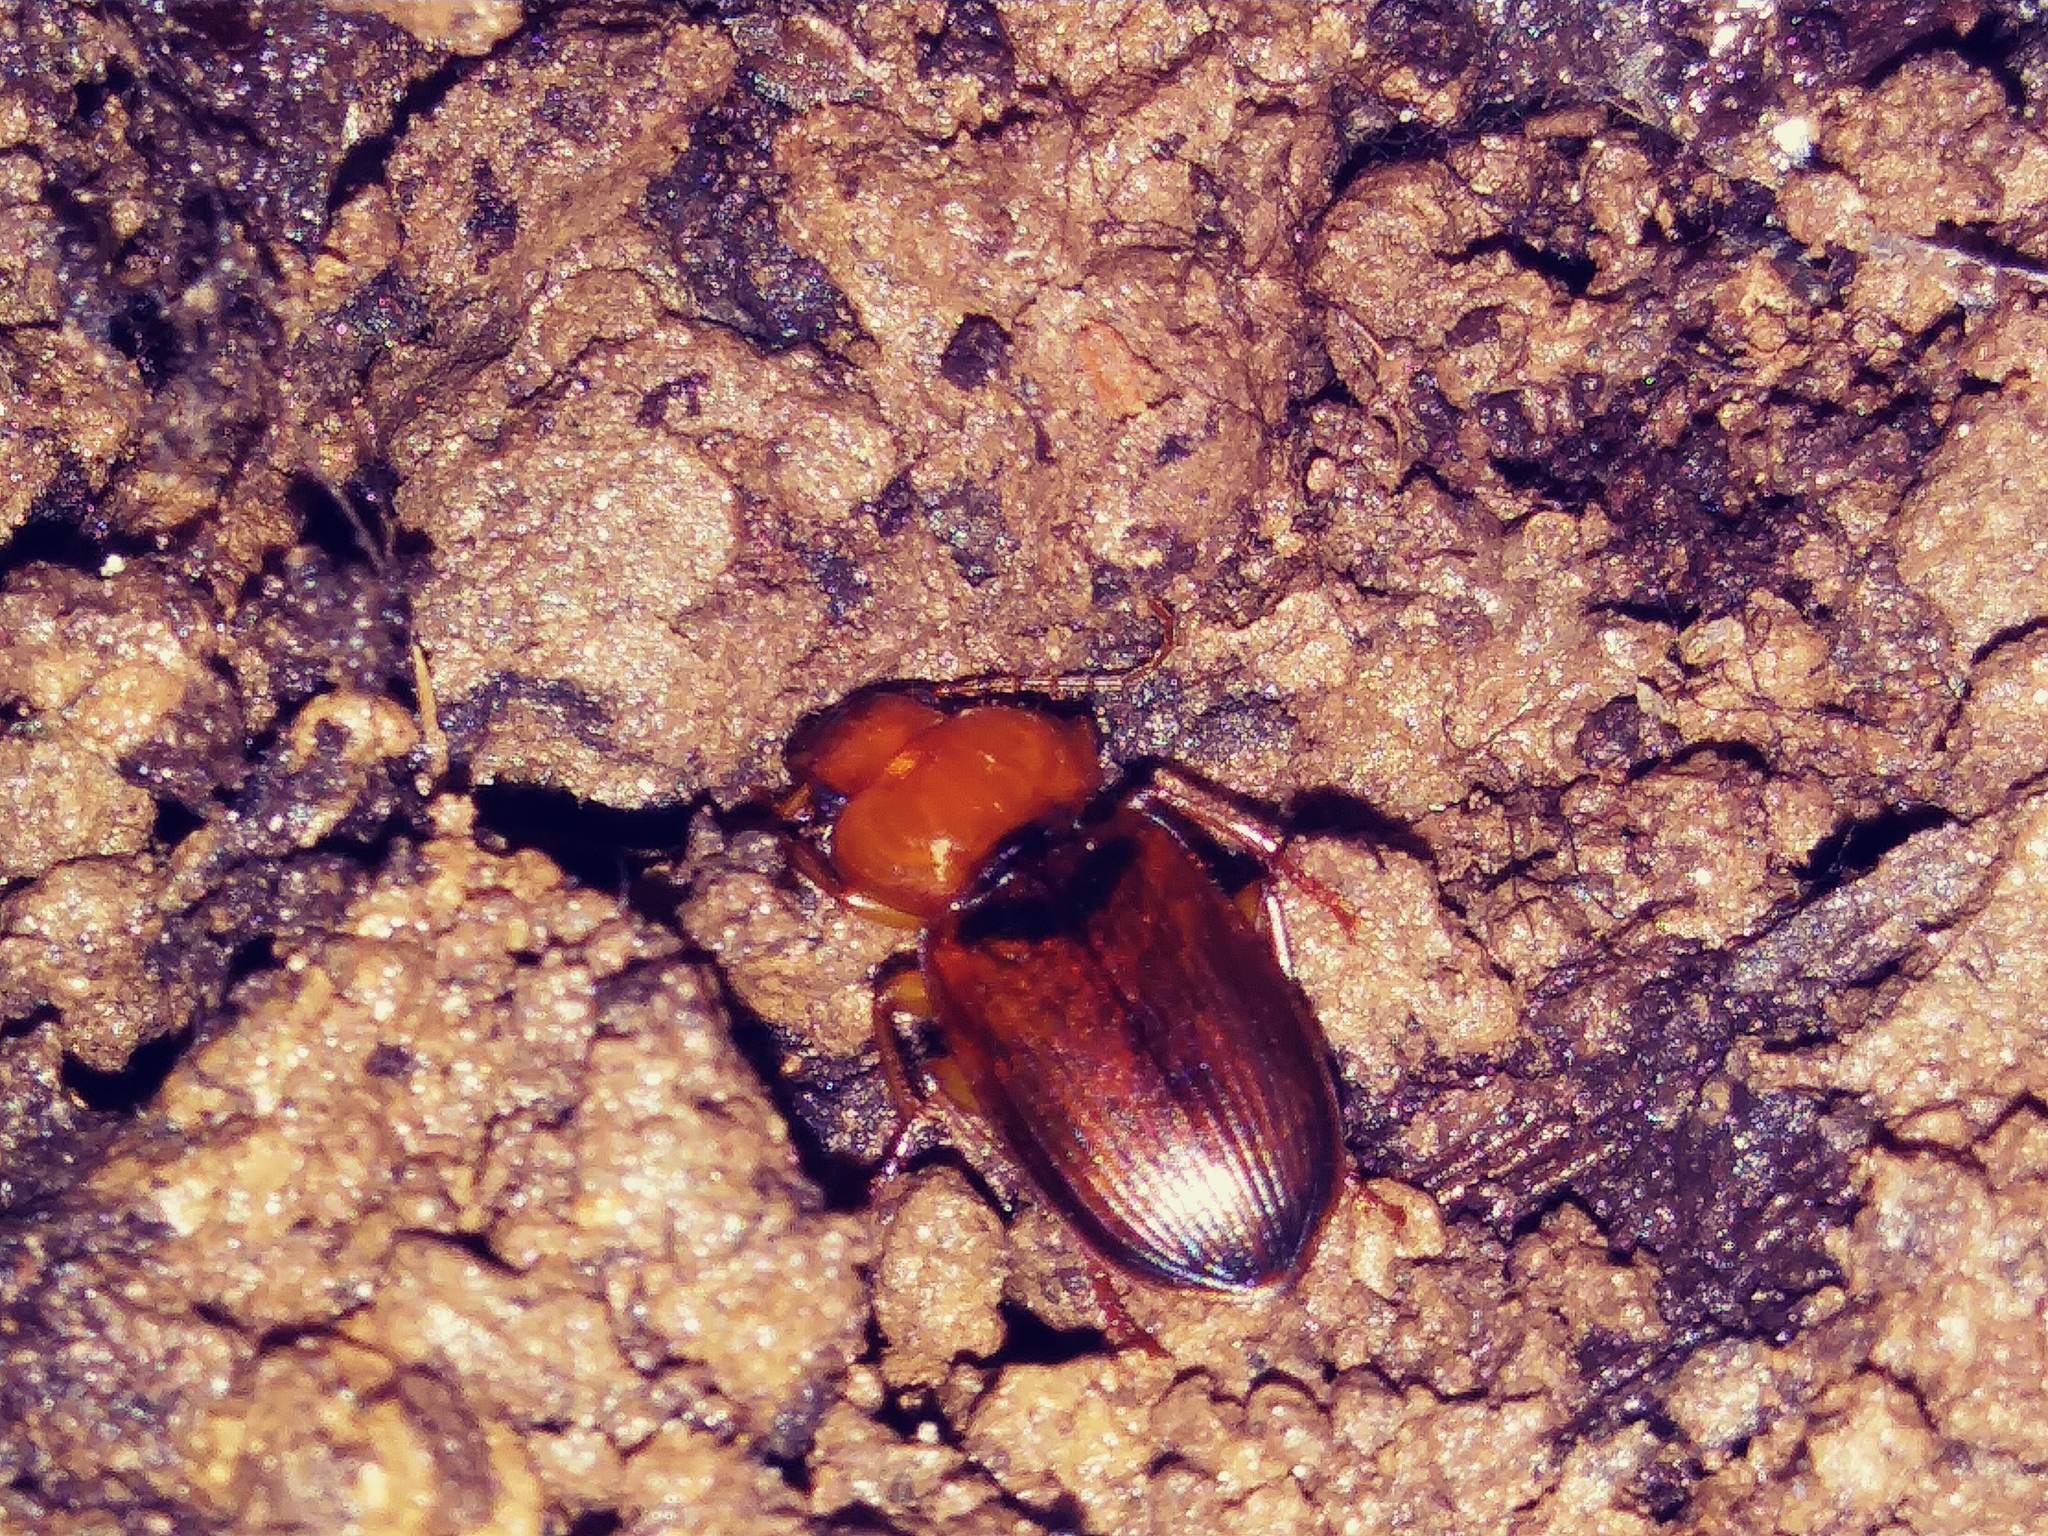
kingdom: Animalia
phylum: Arthropoda
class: Insecta
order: Coleoptera
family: Carabidae
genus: Amphasia
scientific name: Amphasia interstitialis
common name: Red-headed ground beetle
